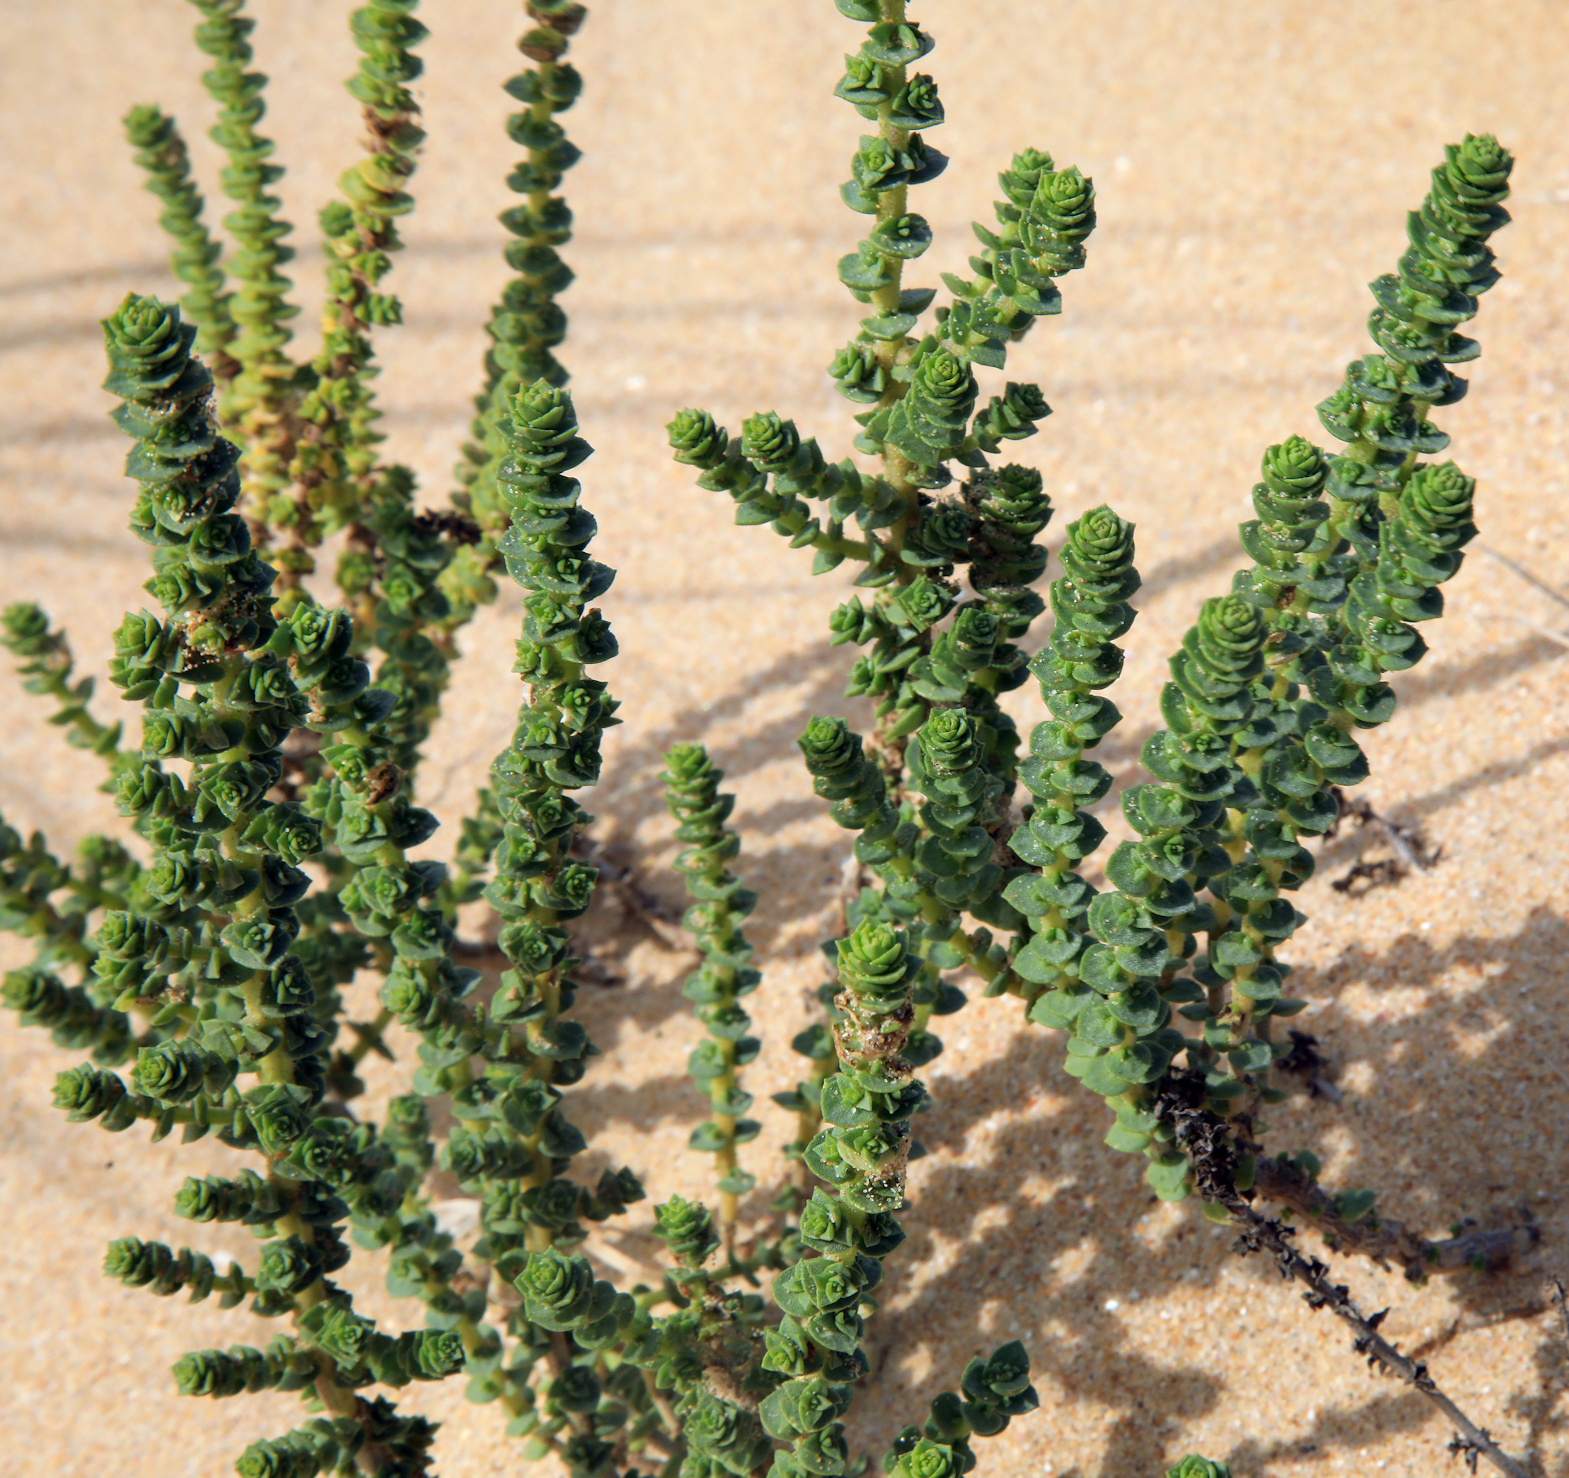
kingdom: Plantae
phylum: Tracheophyta
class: Magnoliopsida
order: Lamiales
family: Scrophulariaceae
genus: Hebenstretia
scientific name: Hebenstretia cordata
